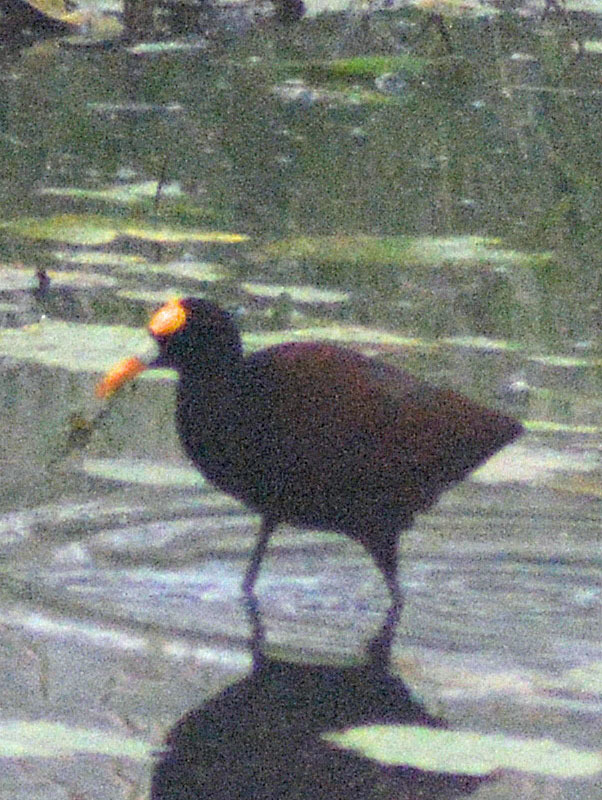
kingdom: Animalia
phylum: Chordata
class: Aves
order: Charadriiformes
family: Jacanidae
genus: Jacana
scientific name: Jacana spinosa
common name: Northern jacana
